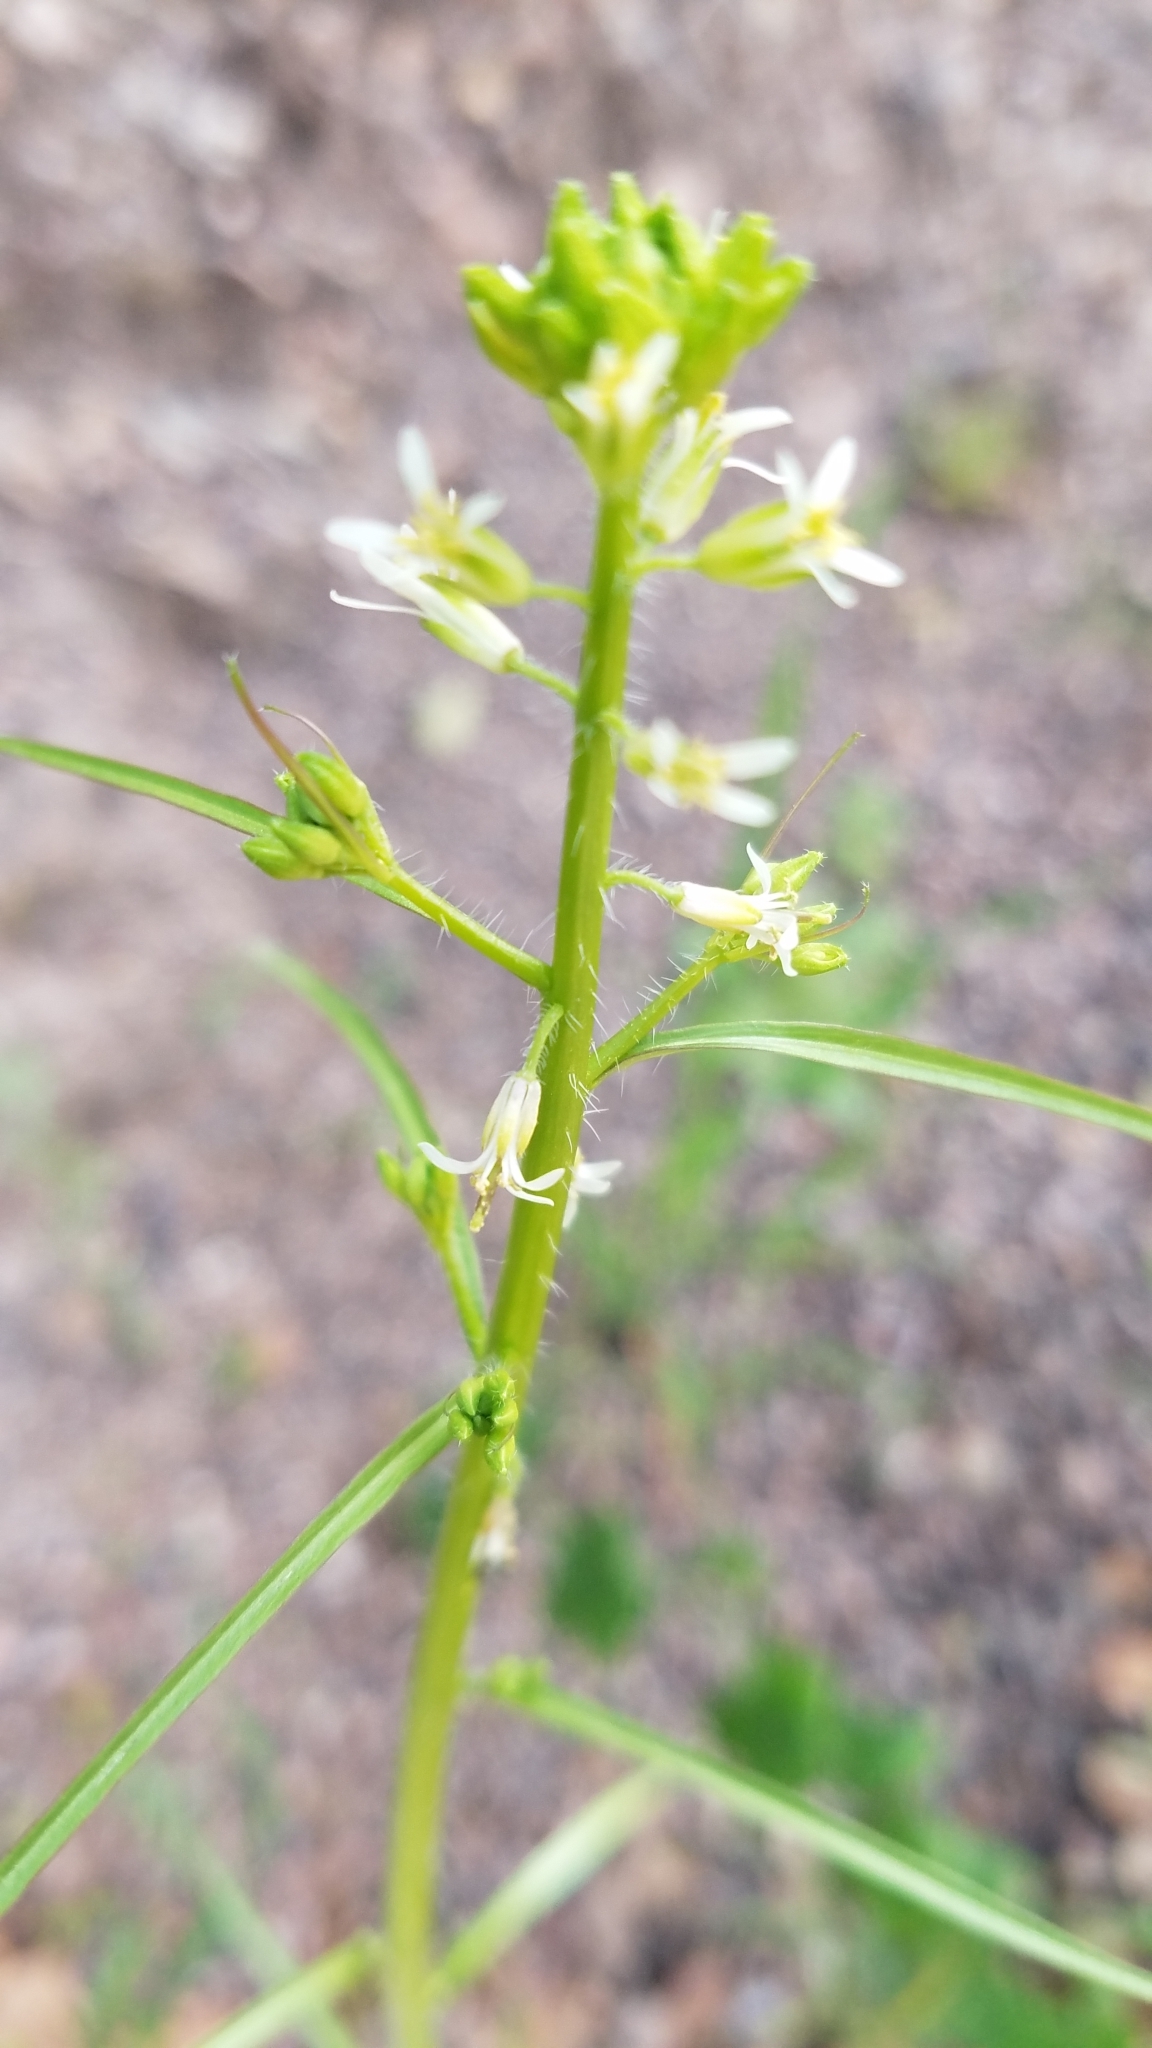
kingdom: Plantae
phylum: Tracheophyta
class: Magnoliopsida
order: Brassicales
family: Brassicaceae
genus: Streptanthus
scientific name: Streptanthus lasiophyllus
